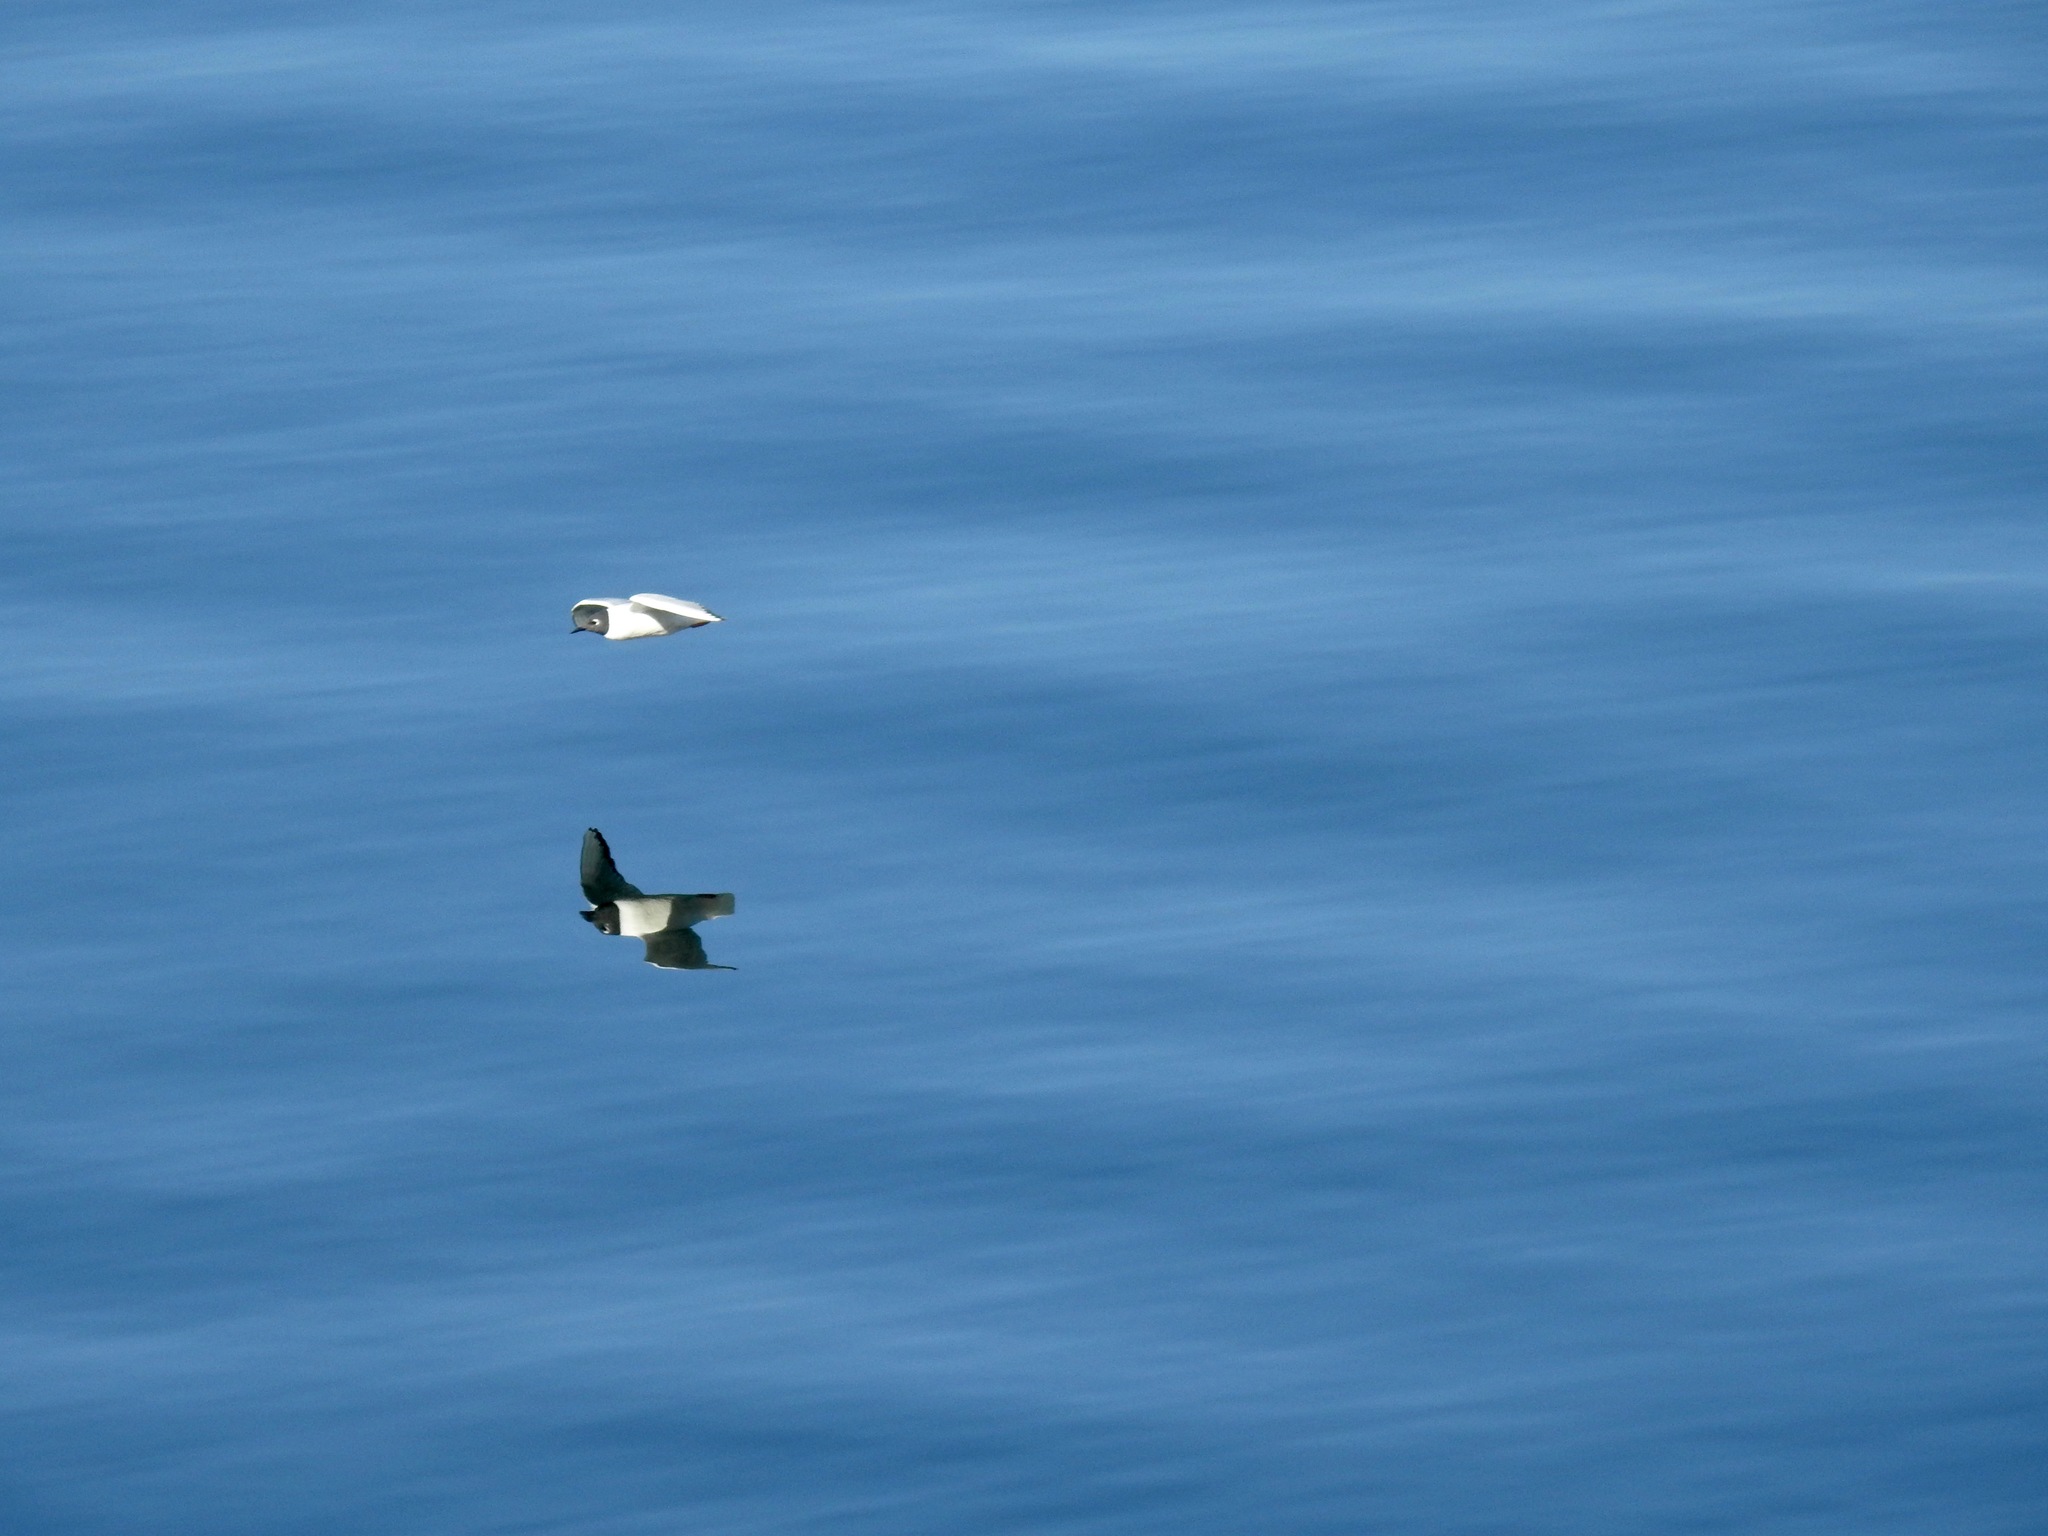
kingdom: Animalia
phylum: Chordata
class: Aves
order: Charadriiformes
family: Laridae
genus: Chroicocephalus
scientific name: Chroicocephalus philadelphia
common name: Bonaparte's gull
